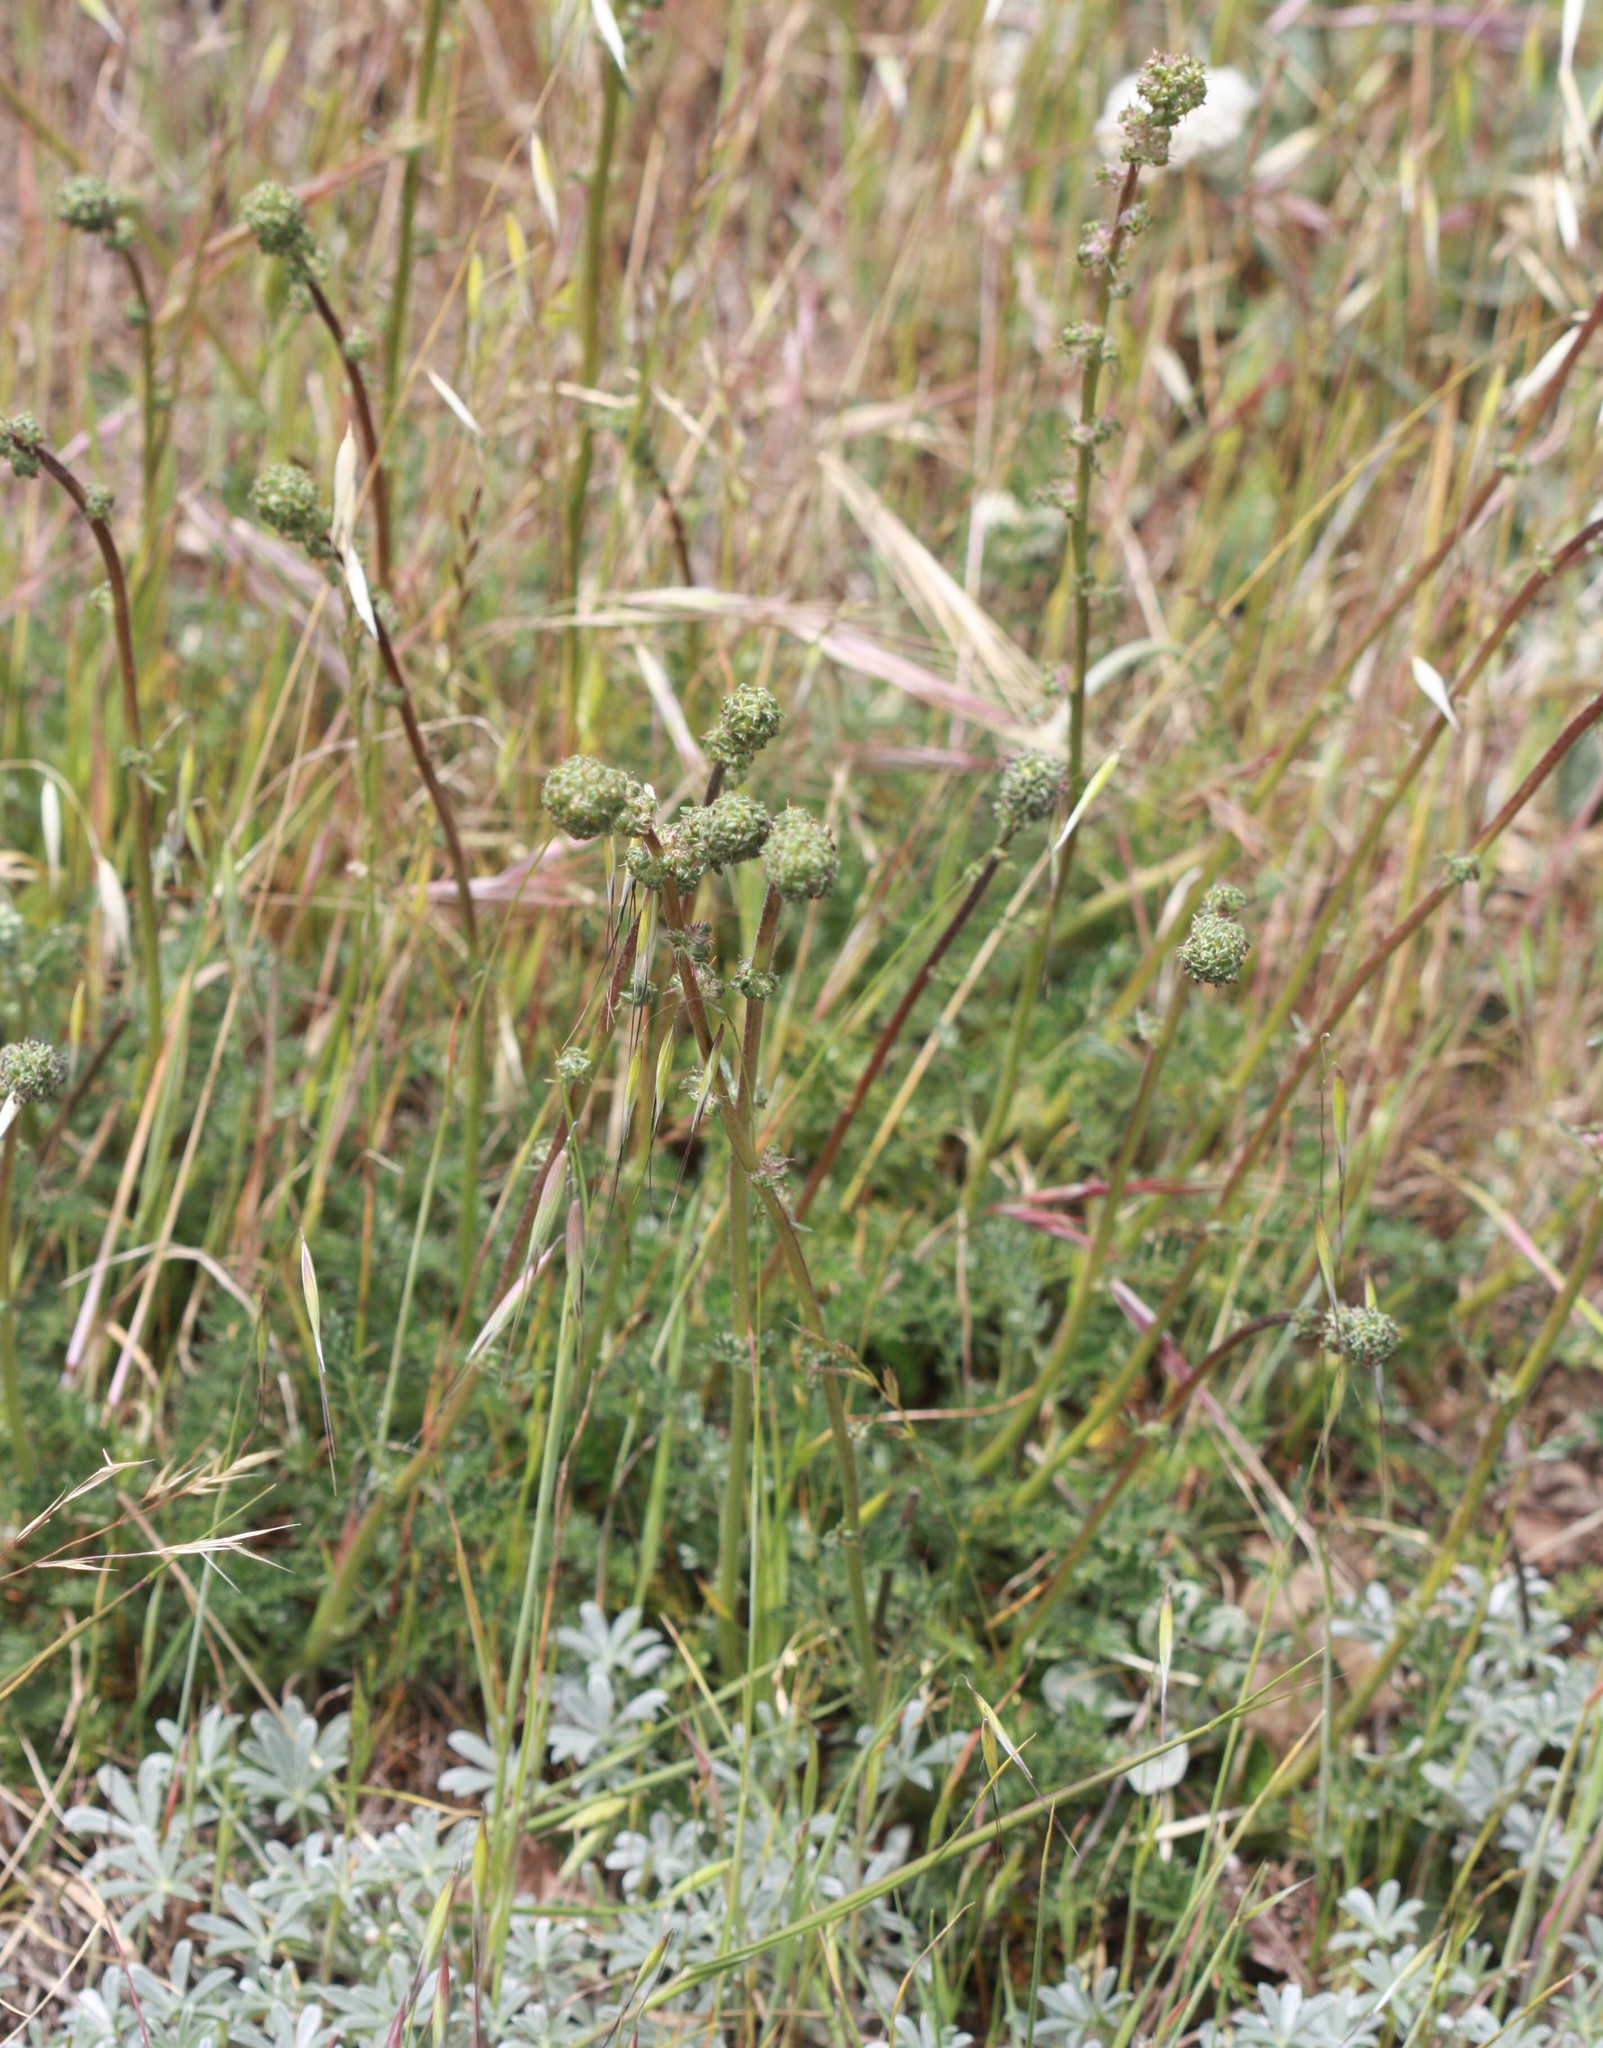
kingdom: Plantae
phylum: Tracheophyta
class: Magnoliopsida
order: Rosales
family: Rosaceae
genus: Acaena
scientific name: Acaena pinnatifida
